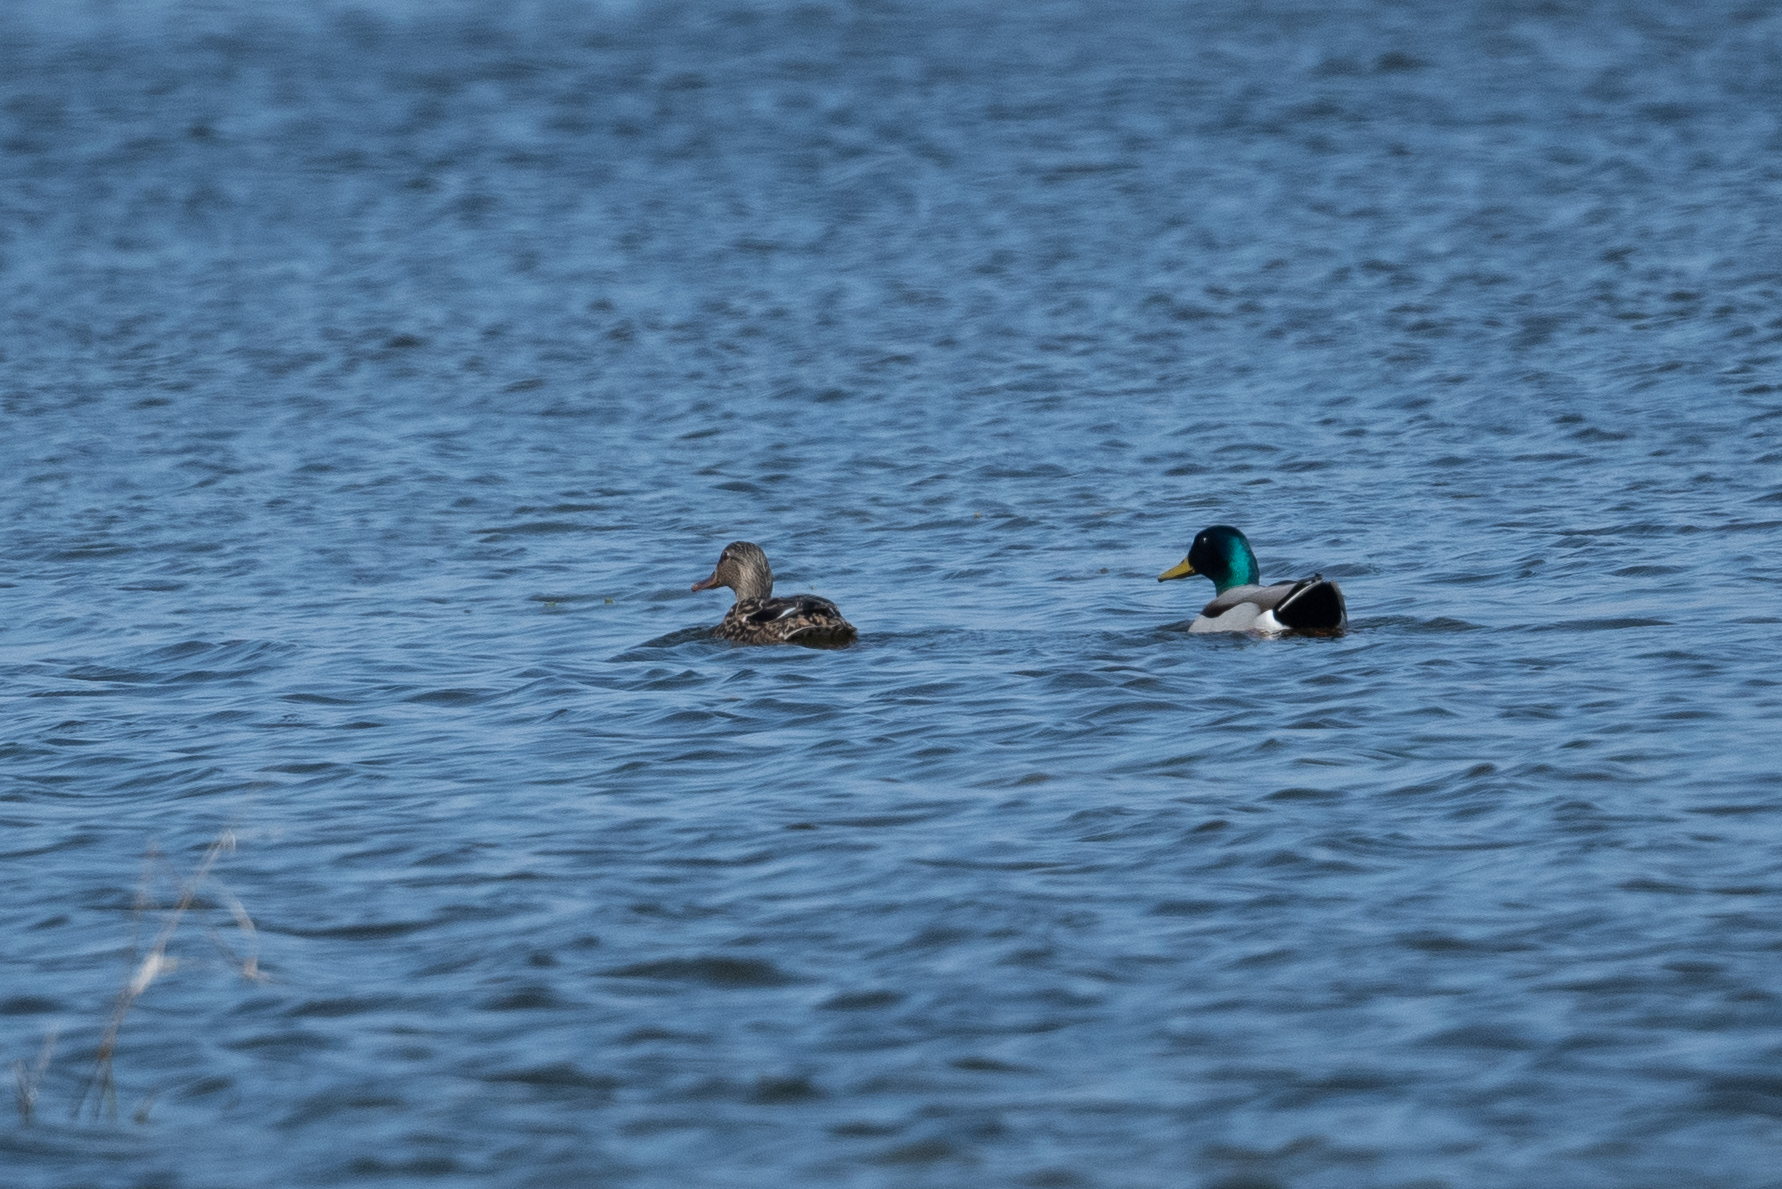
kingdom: Animalia
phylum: Chordata
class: Aves
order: Anseriformes
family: Anatidae
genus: Anas
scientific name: Anas platyrhynchos
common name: Mallard
